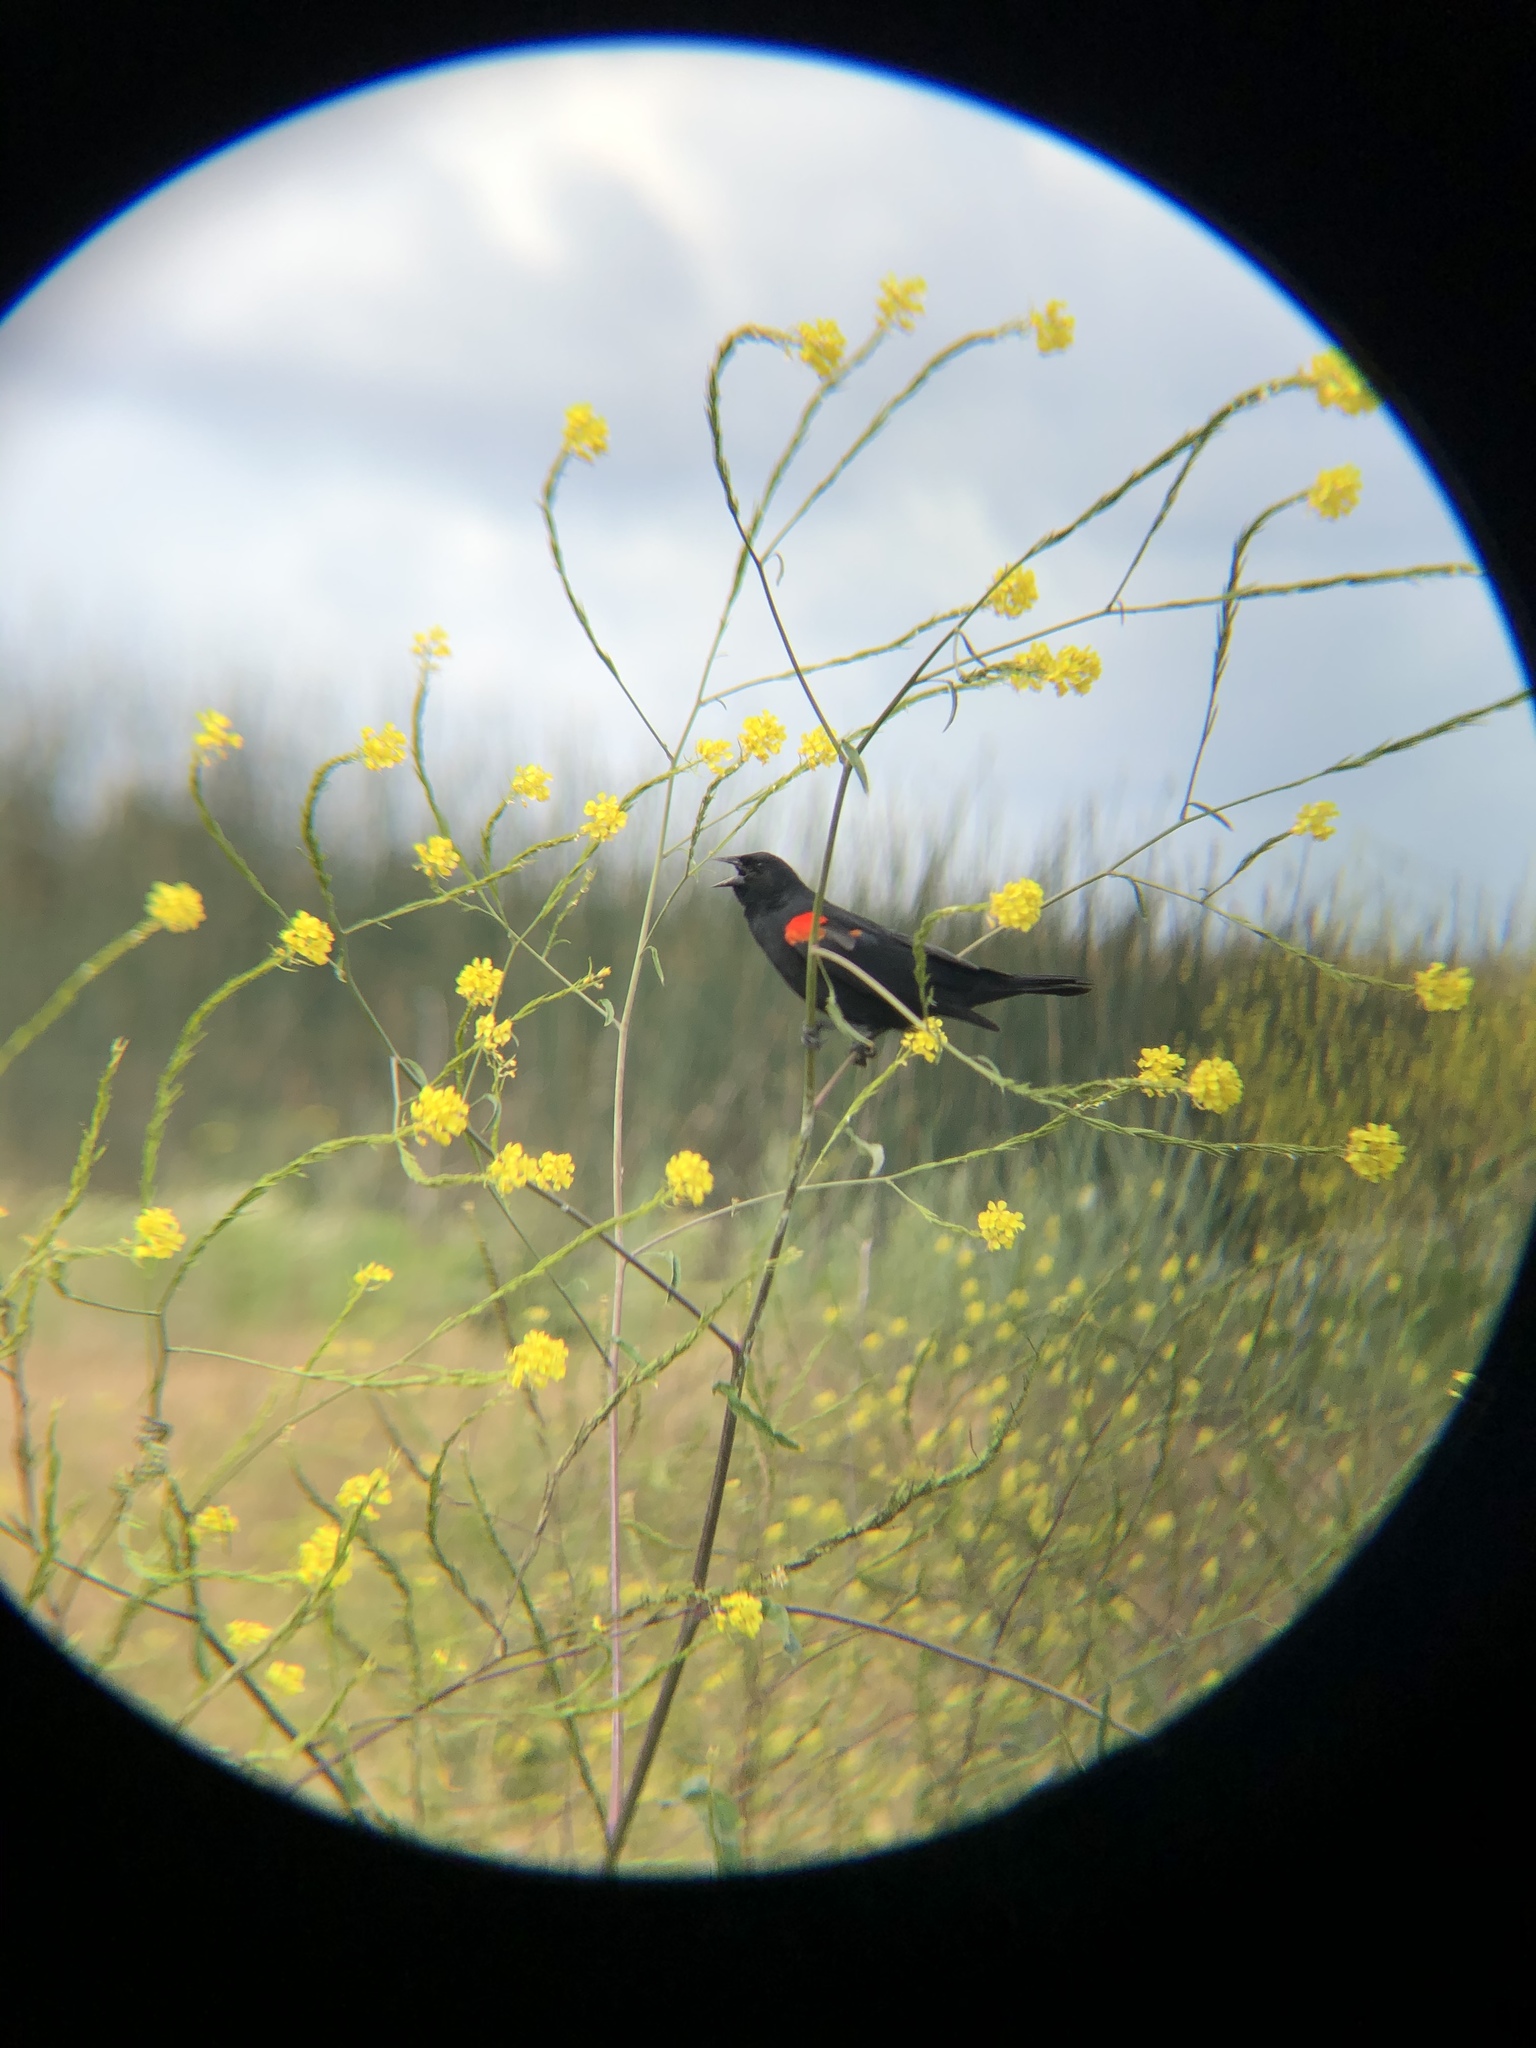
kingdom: Animalia
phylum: Chordata
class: Aves
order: Passeriformes
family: Icteridae
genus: Agelaius
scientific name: Agelaius phoeniceus
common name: Red-winged blackbird
